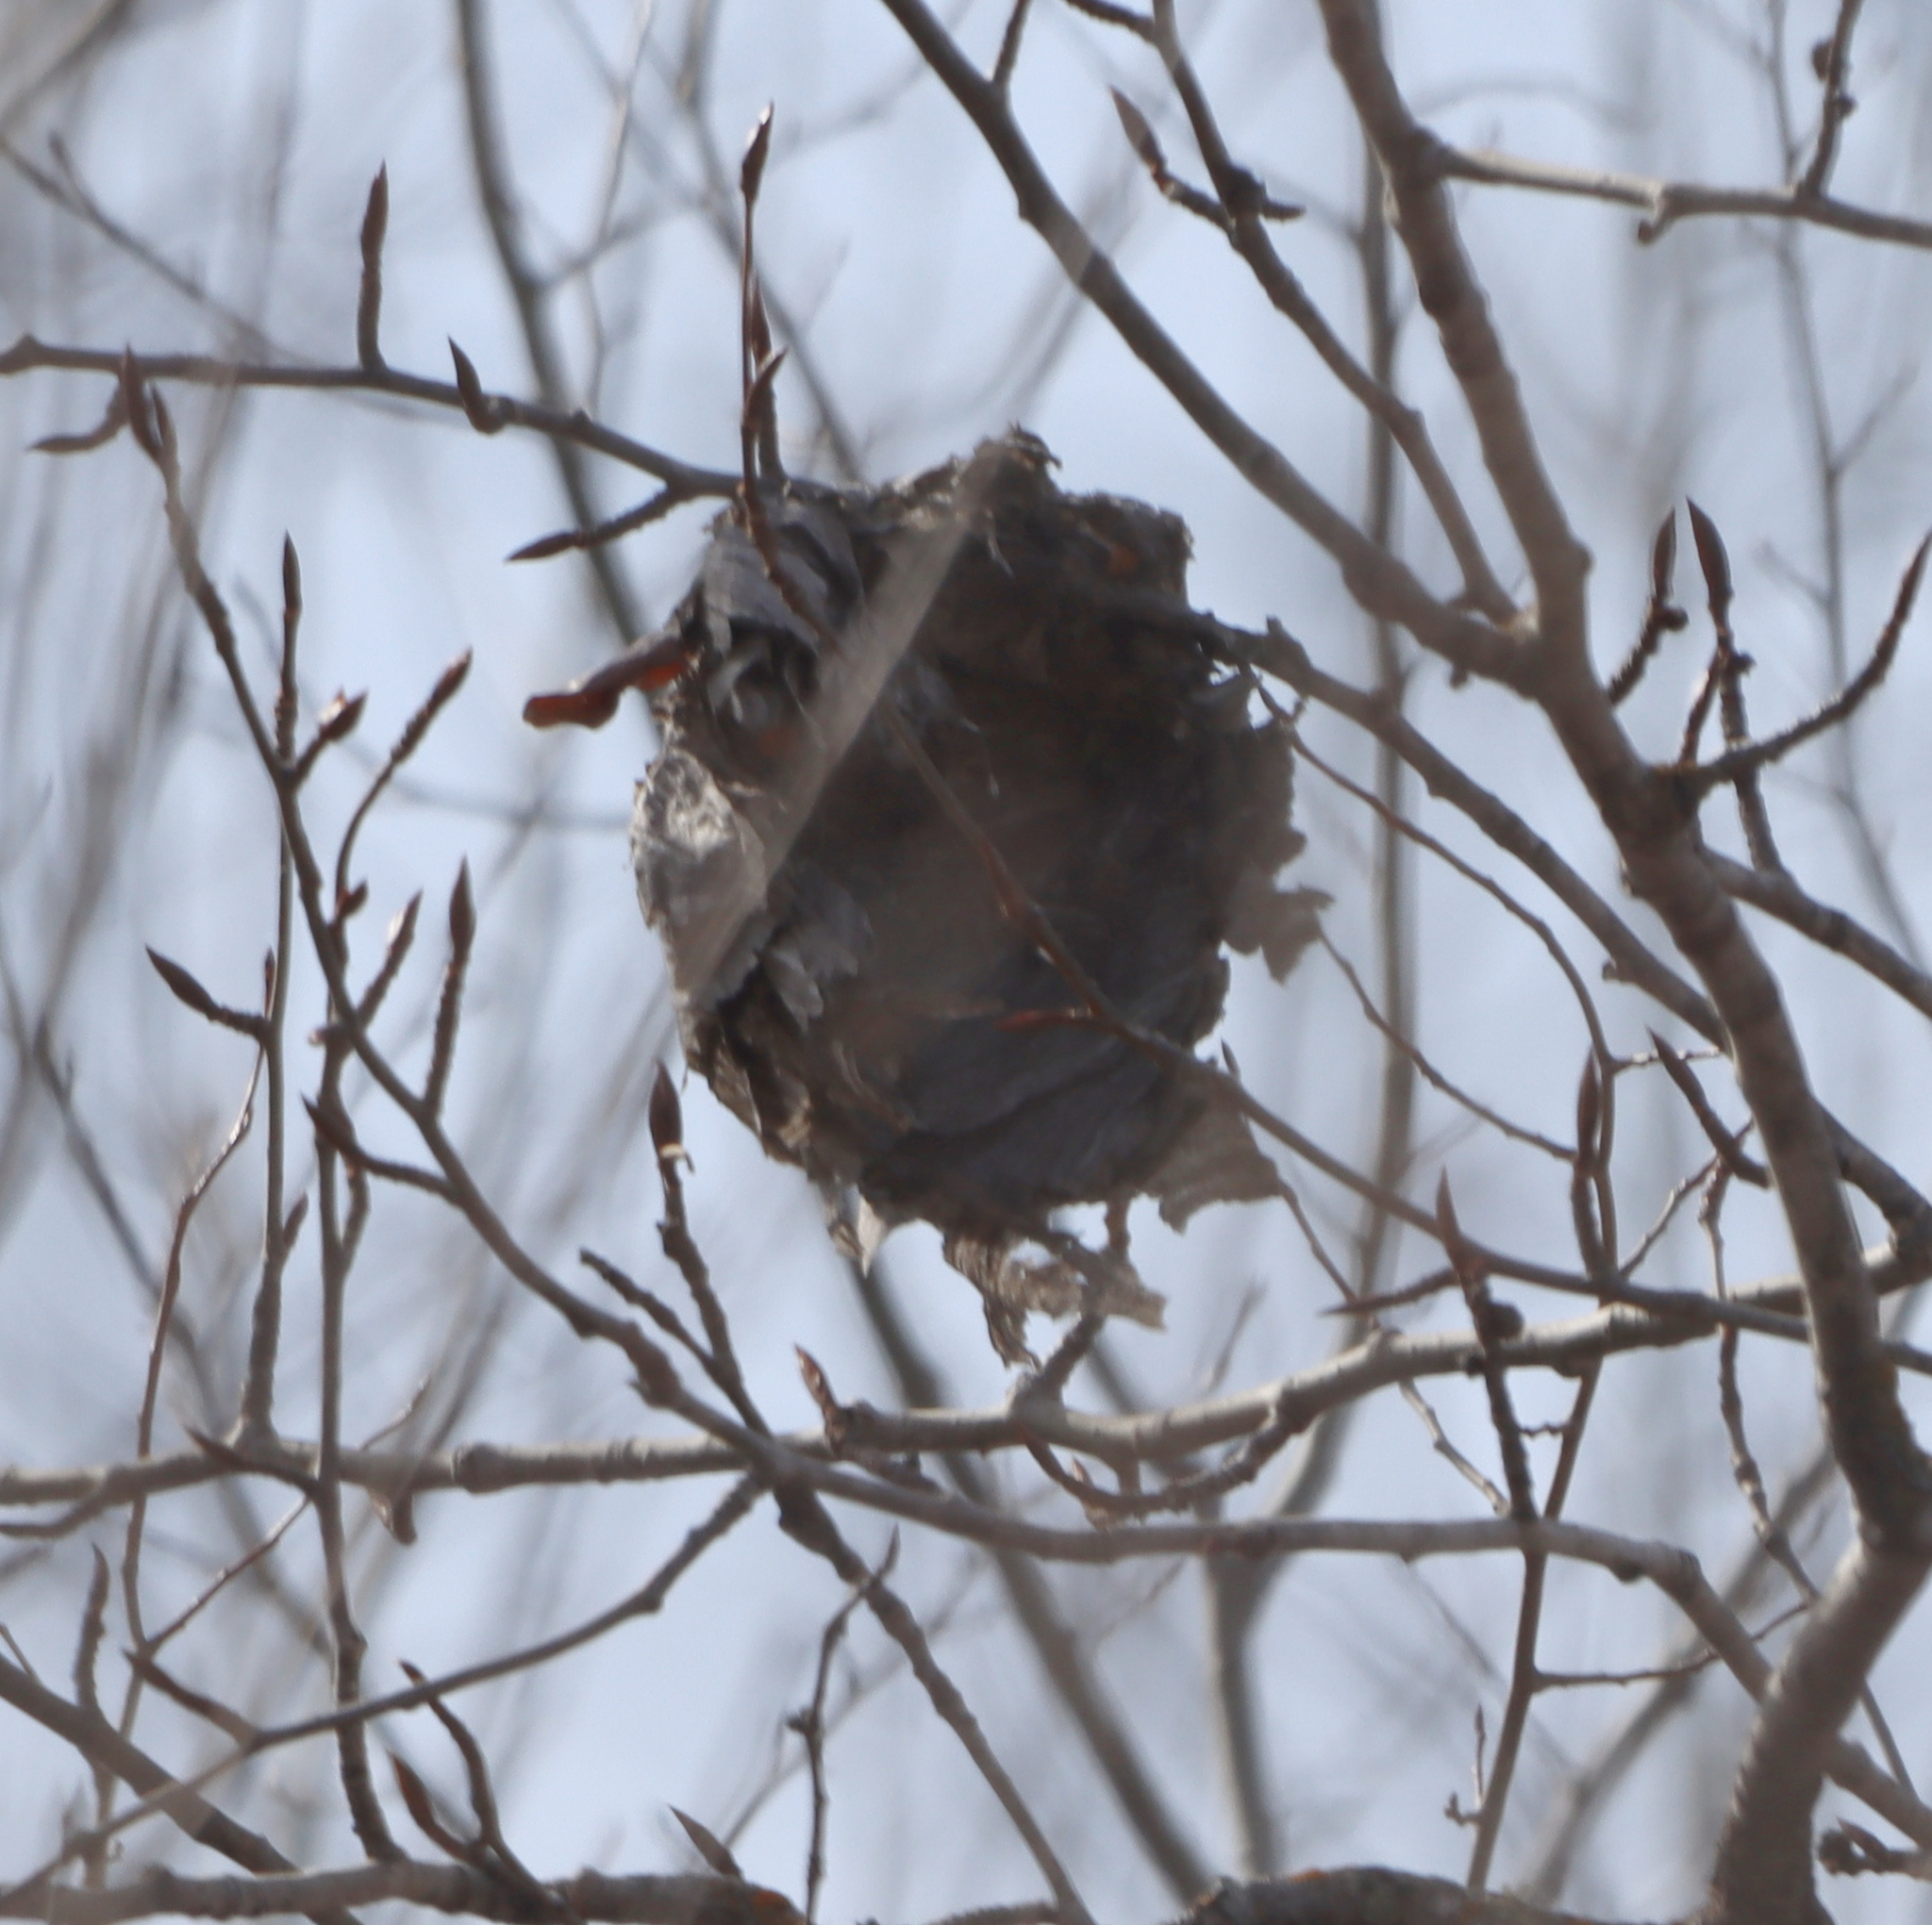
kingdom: Animalia
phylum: Arthropoda
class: Insecta
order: Hymenoptera
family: Vespidae
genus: Dolichovespula
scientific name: Dolichovespula
